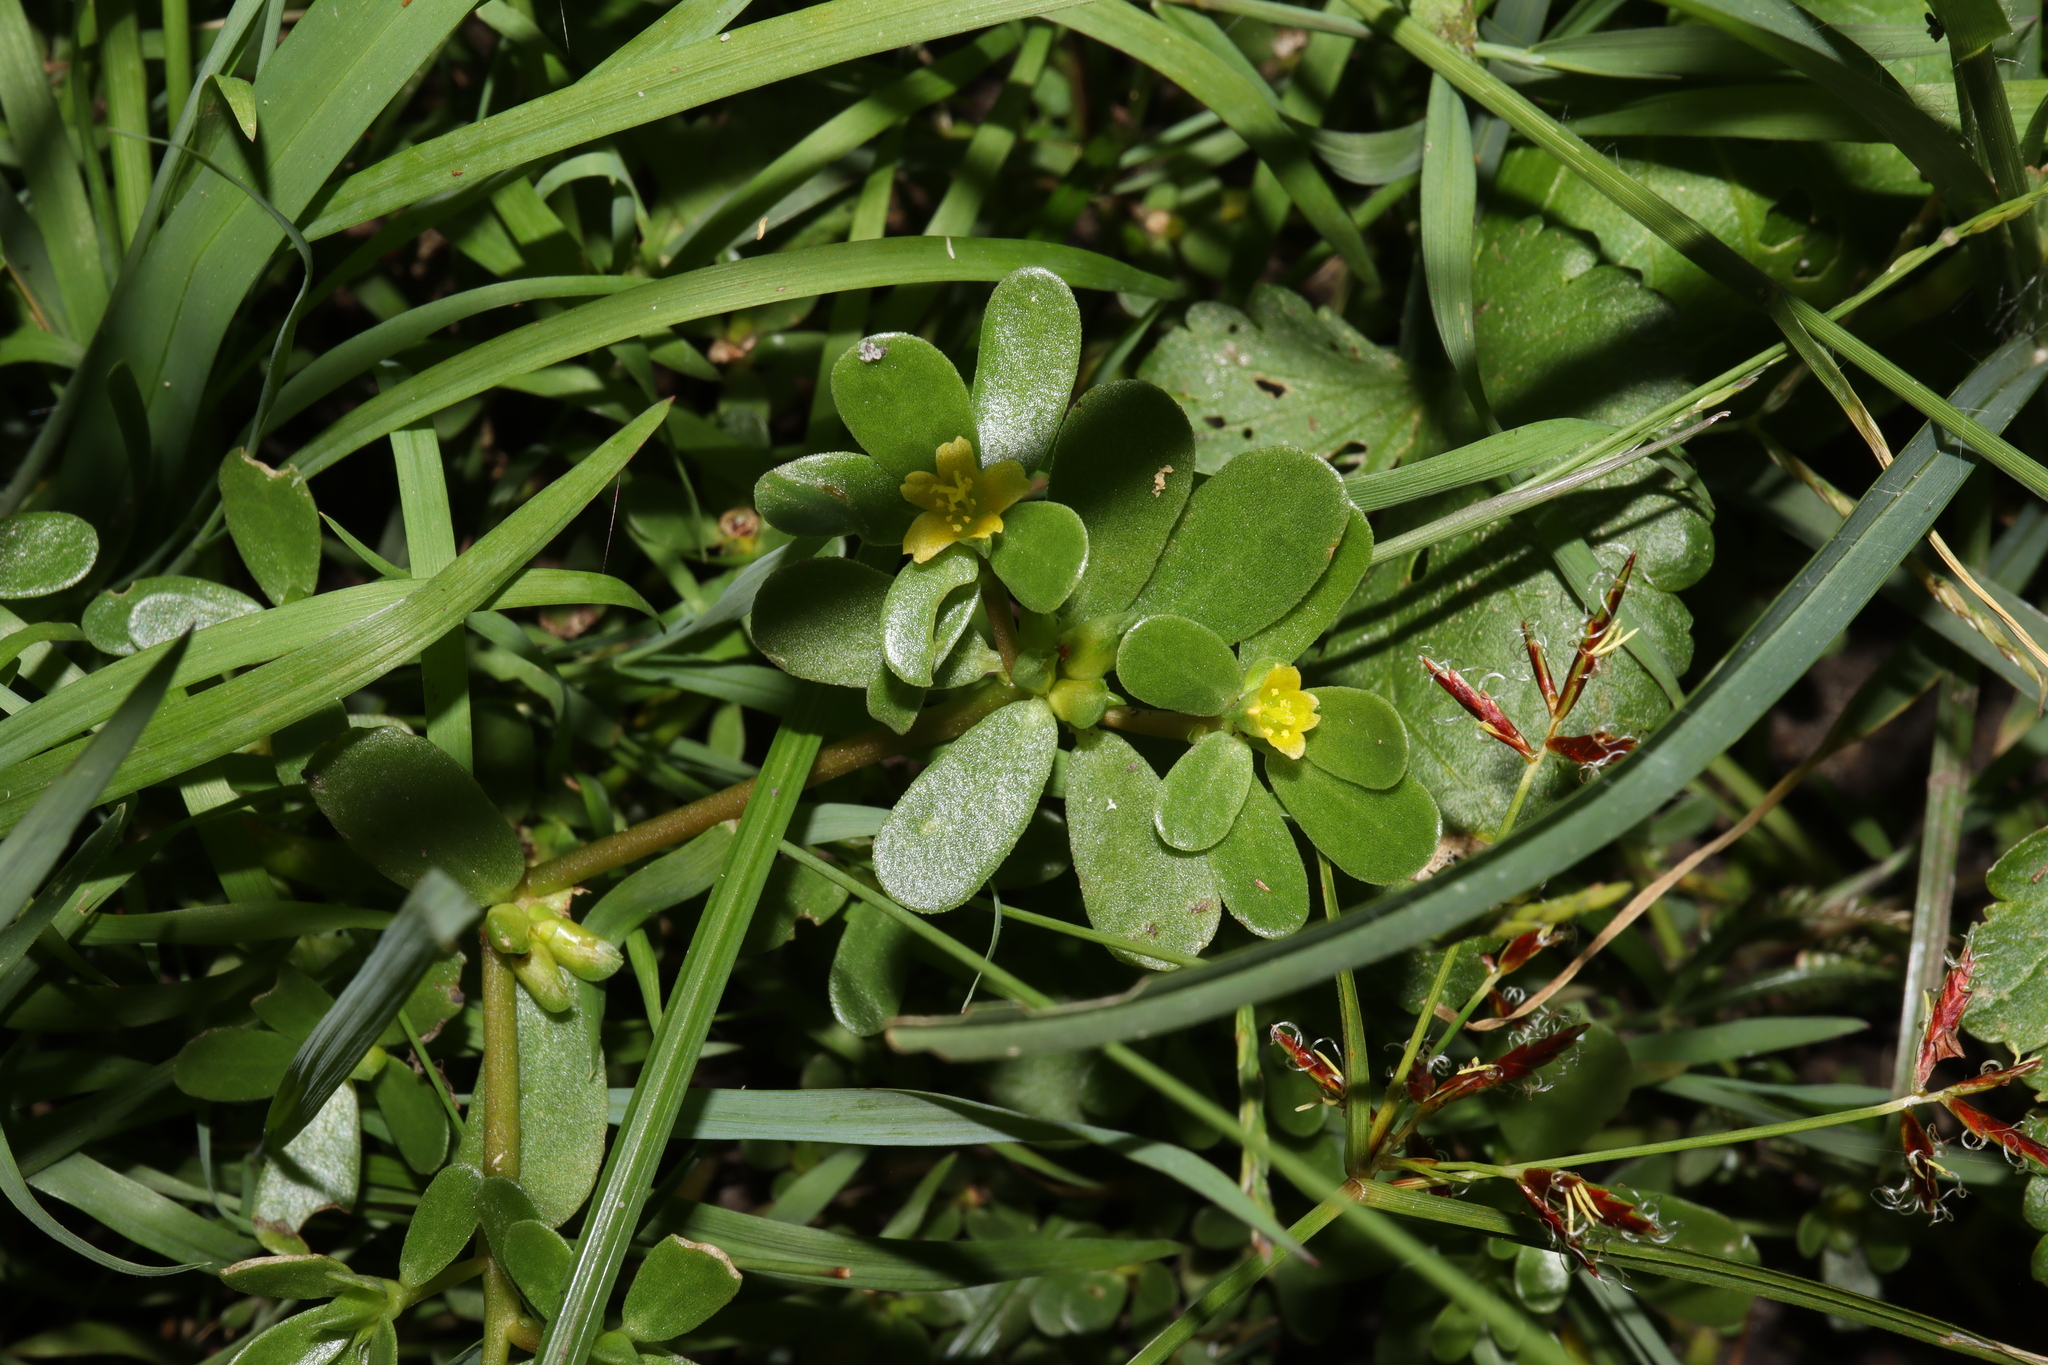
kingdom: Plantae
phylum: Tracheophyta
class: Magnoliopsida
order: Caryophyllales
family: Portulacaceae
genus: Portulaca
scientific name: Portulaca oleracea
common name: Common purslane
